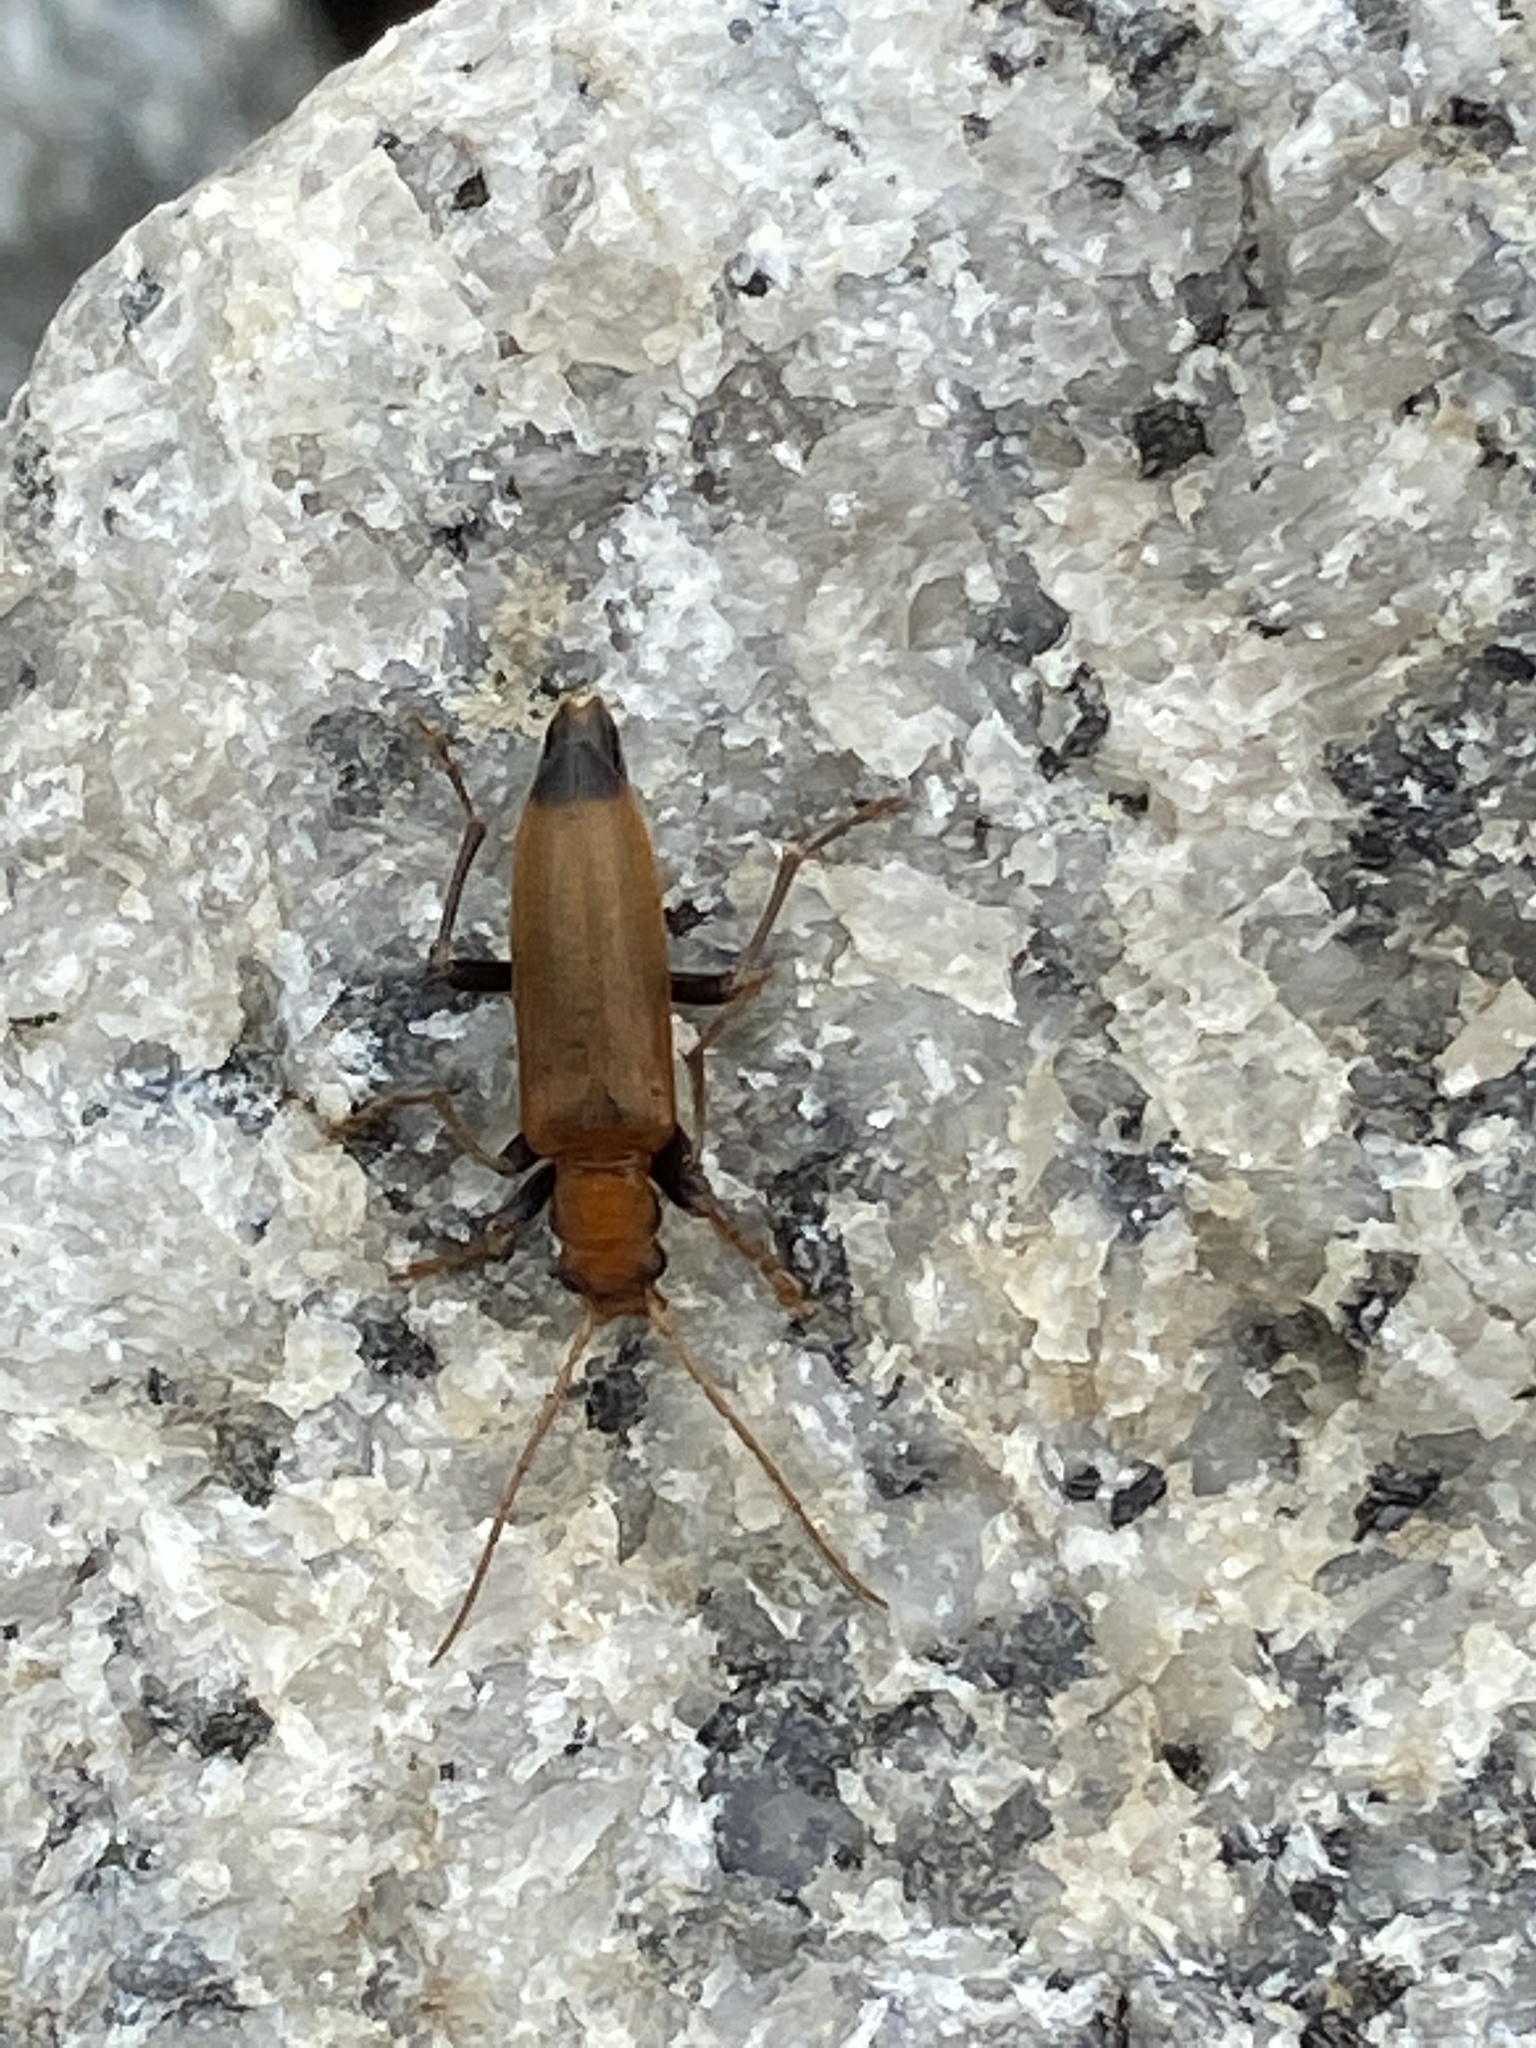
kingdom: Animalia
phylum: Arthropoda
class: Insecta
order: Coleoptera
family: Oedemeridae
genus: Nacerdes
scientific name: Nacerdes melanura
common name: Wharf borer
